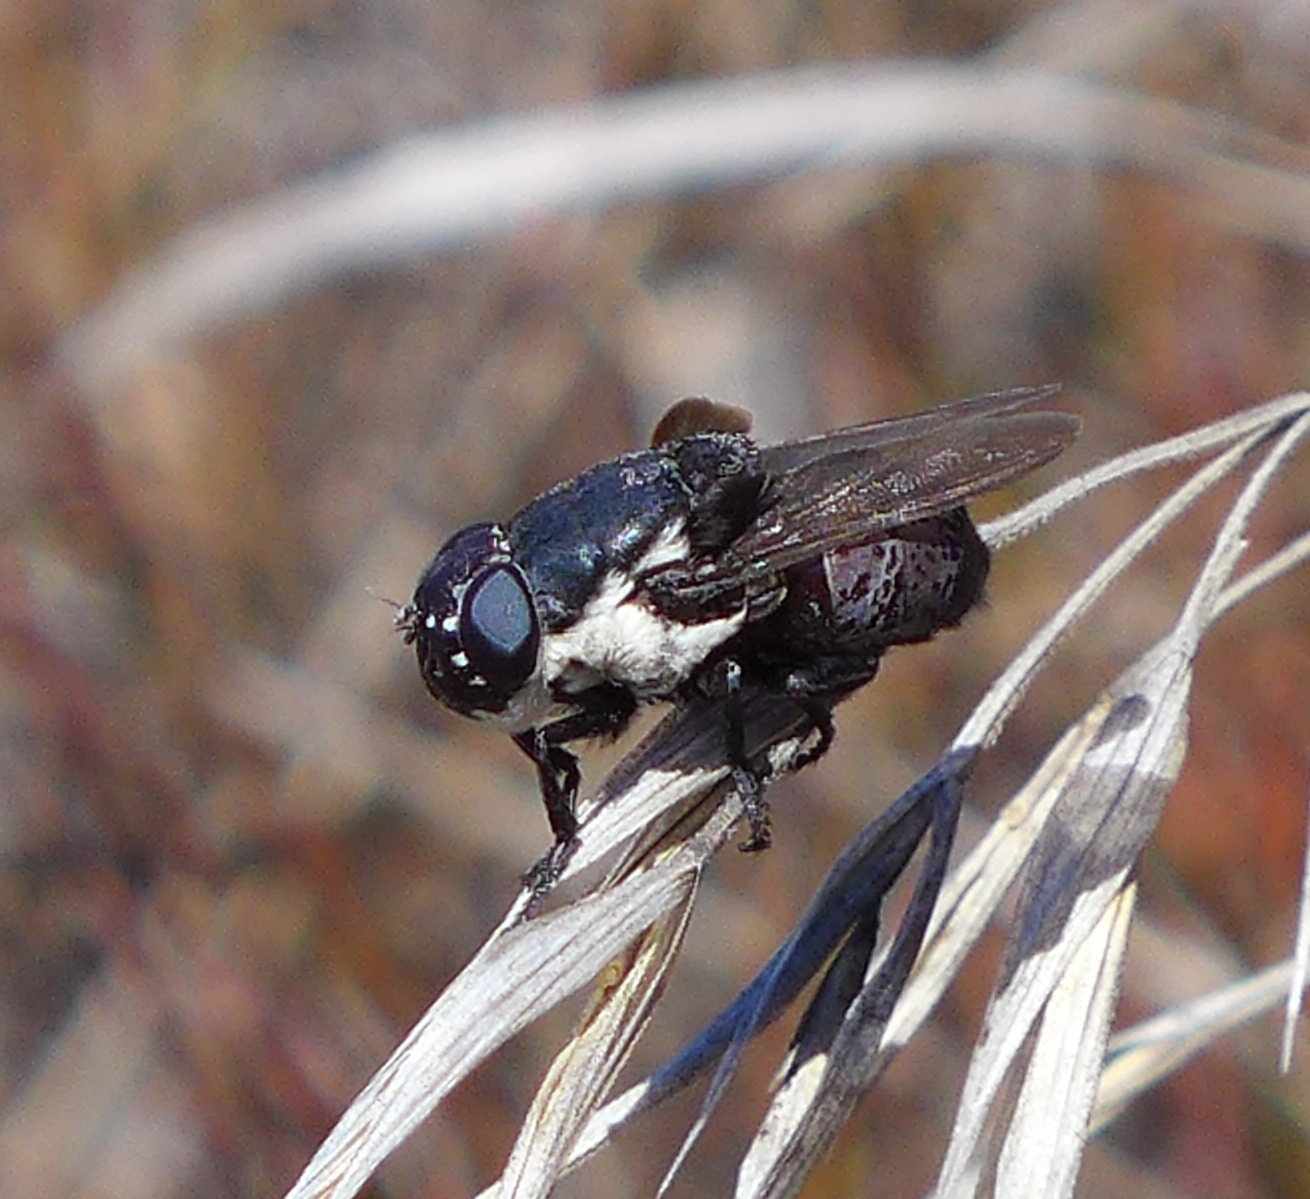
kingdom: Animalia
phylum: Arthropoda
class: Insecta
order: Diptera
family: Oestridae
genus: Cuterebra
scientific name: Cuterebra latifrons
